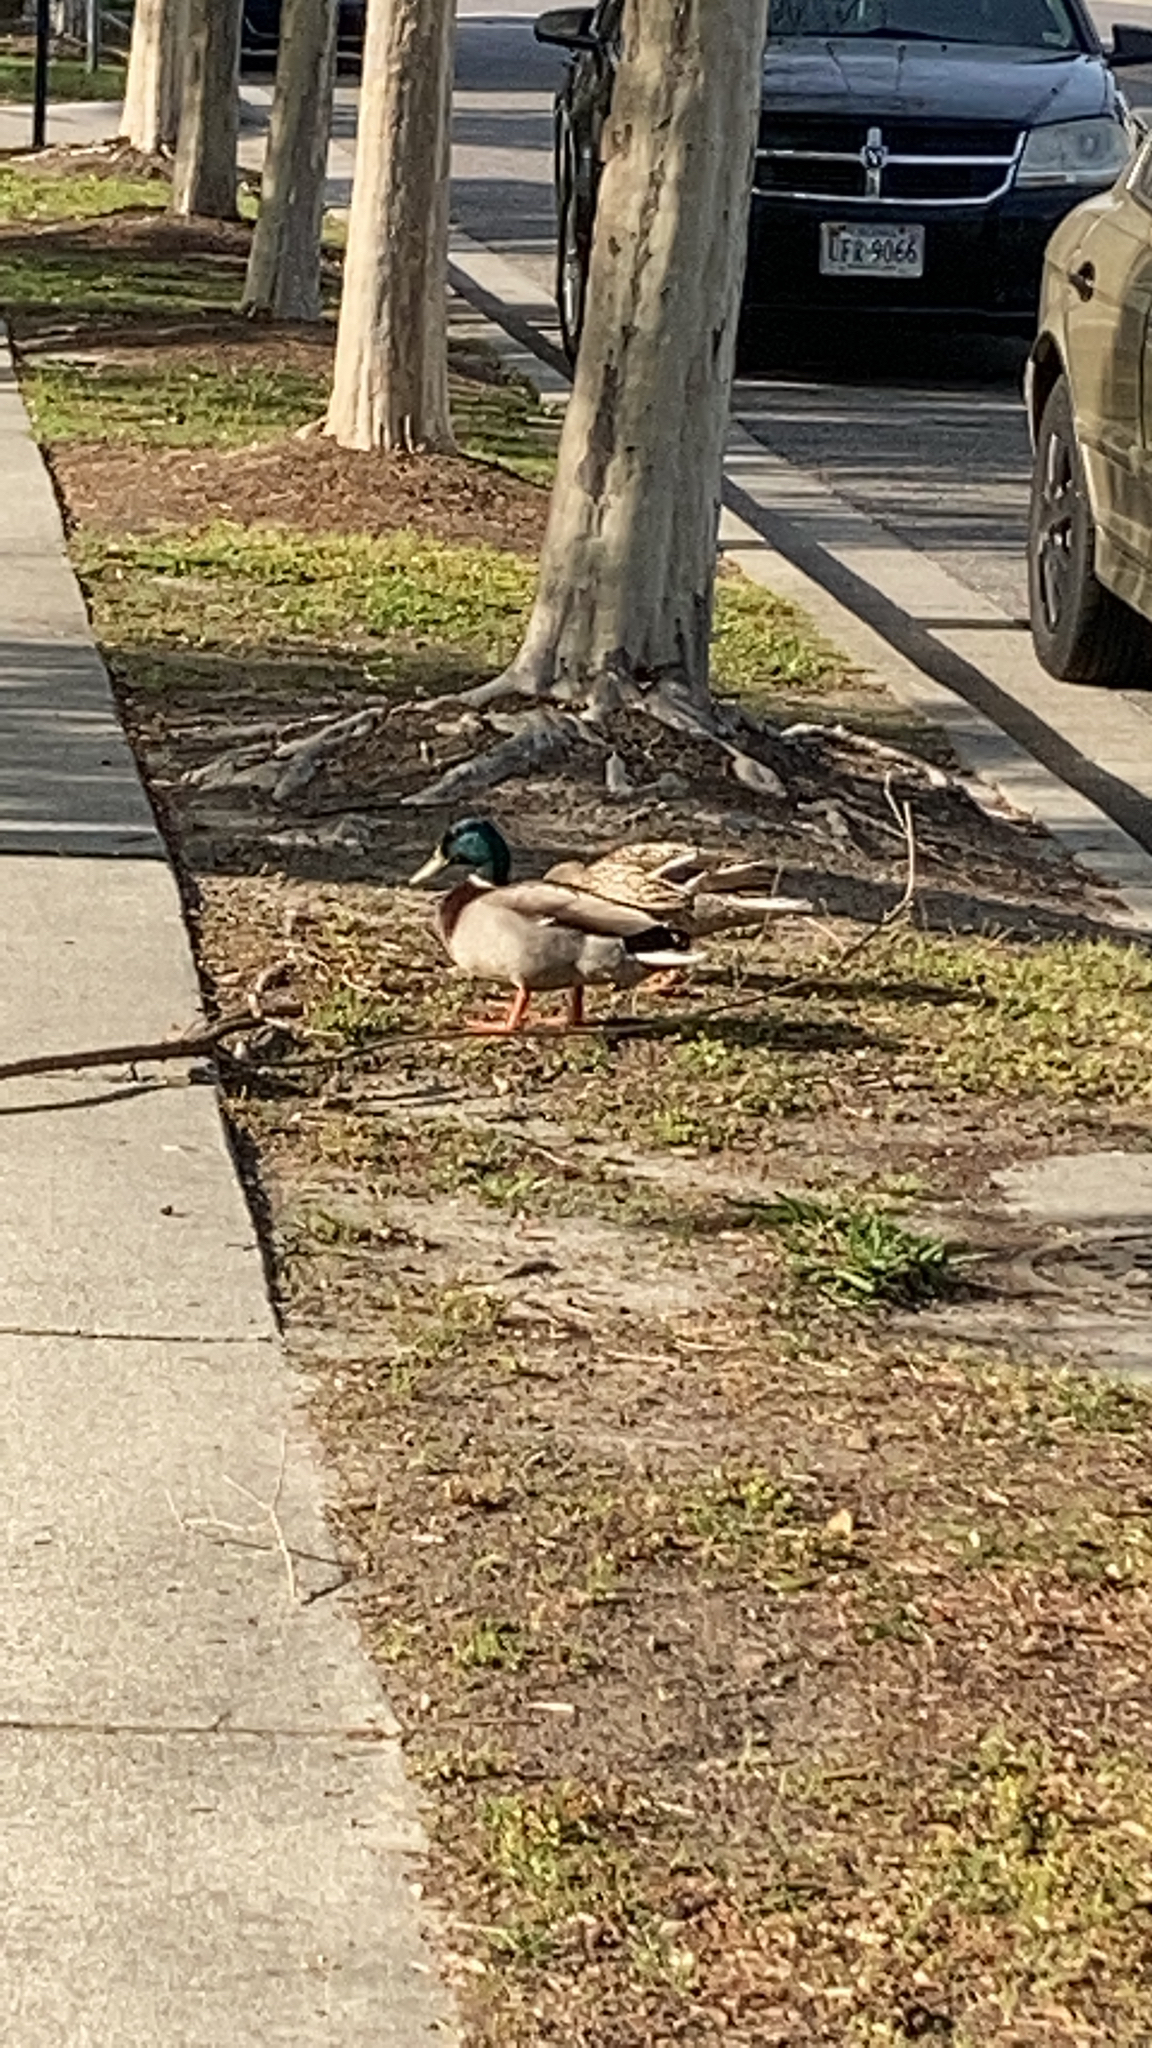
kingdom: Animalia
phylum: Chordata
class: Aves
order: Anseriformes
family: Anatidae
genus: Anas
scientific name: Anas platyrhynchos
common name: Mallard
